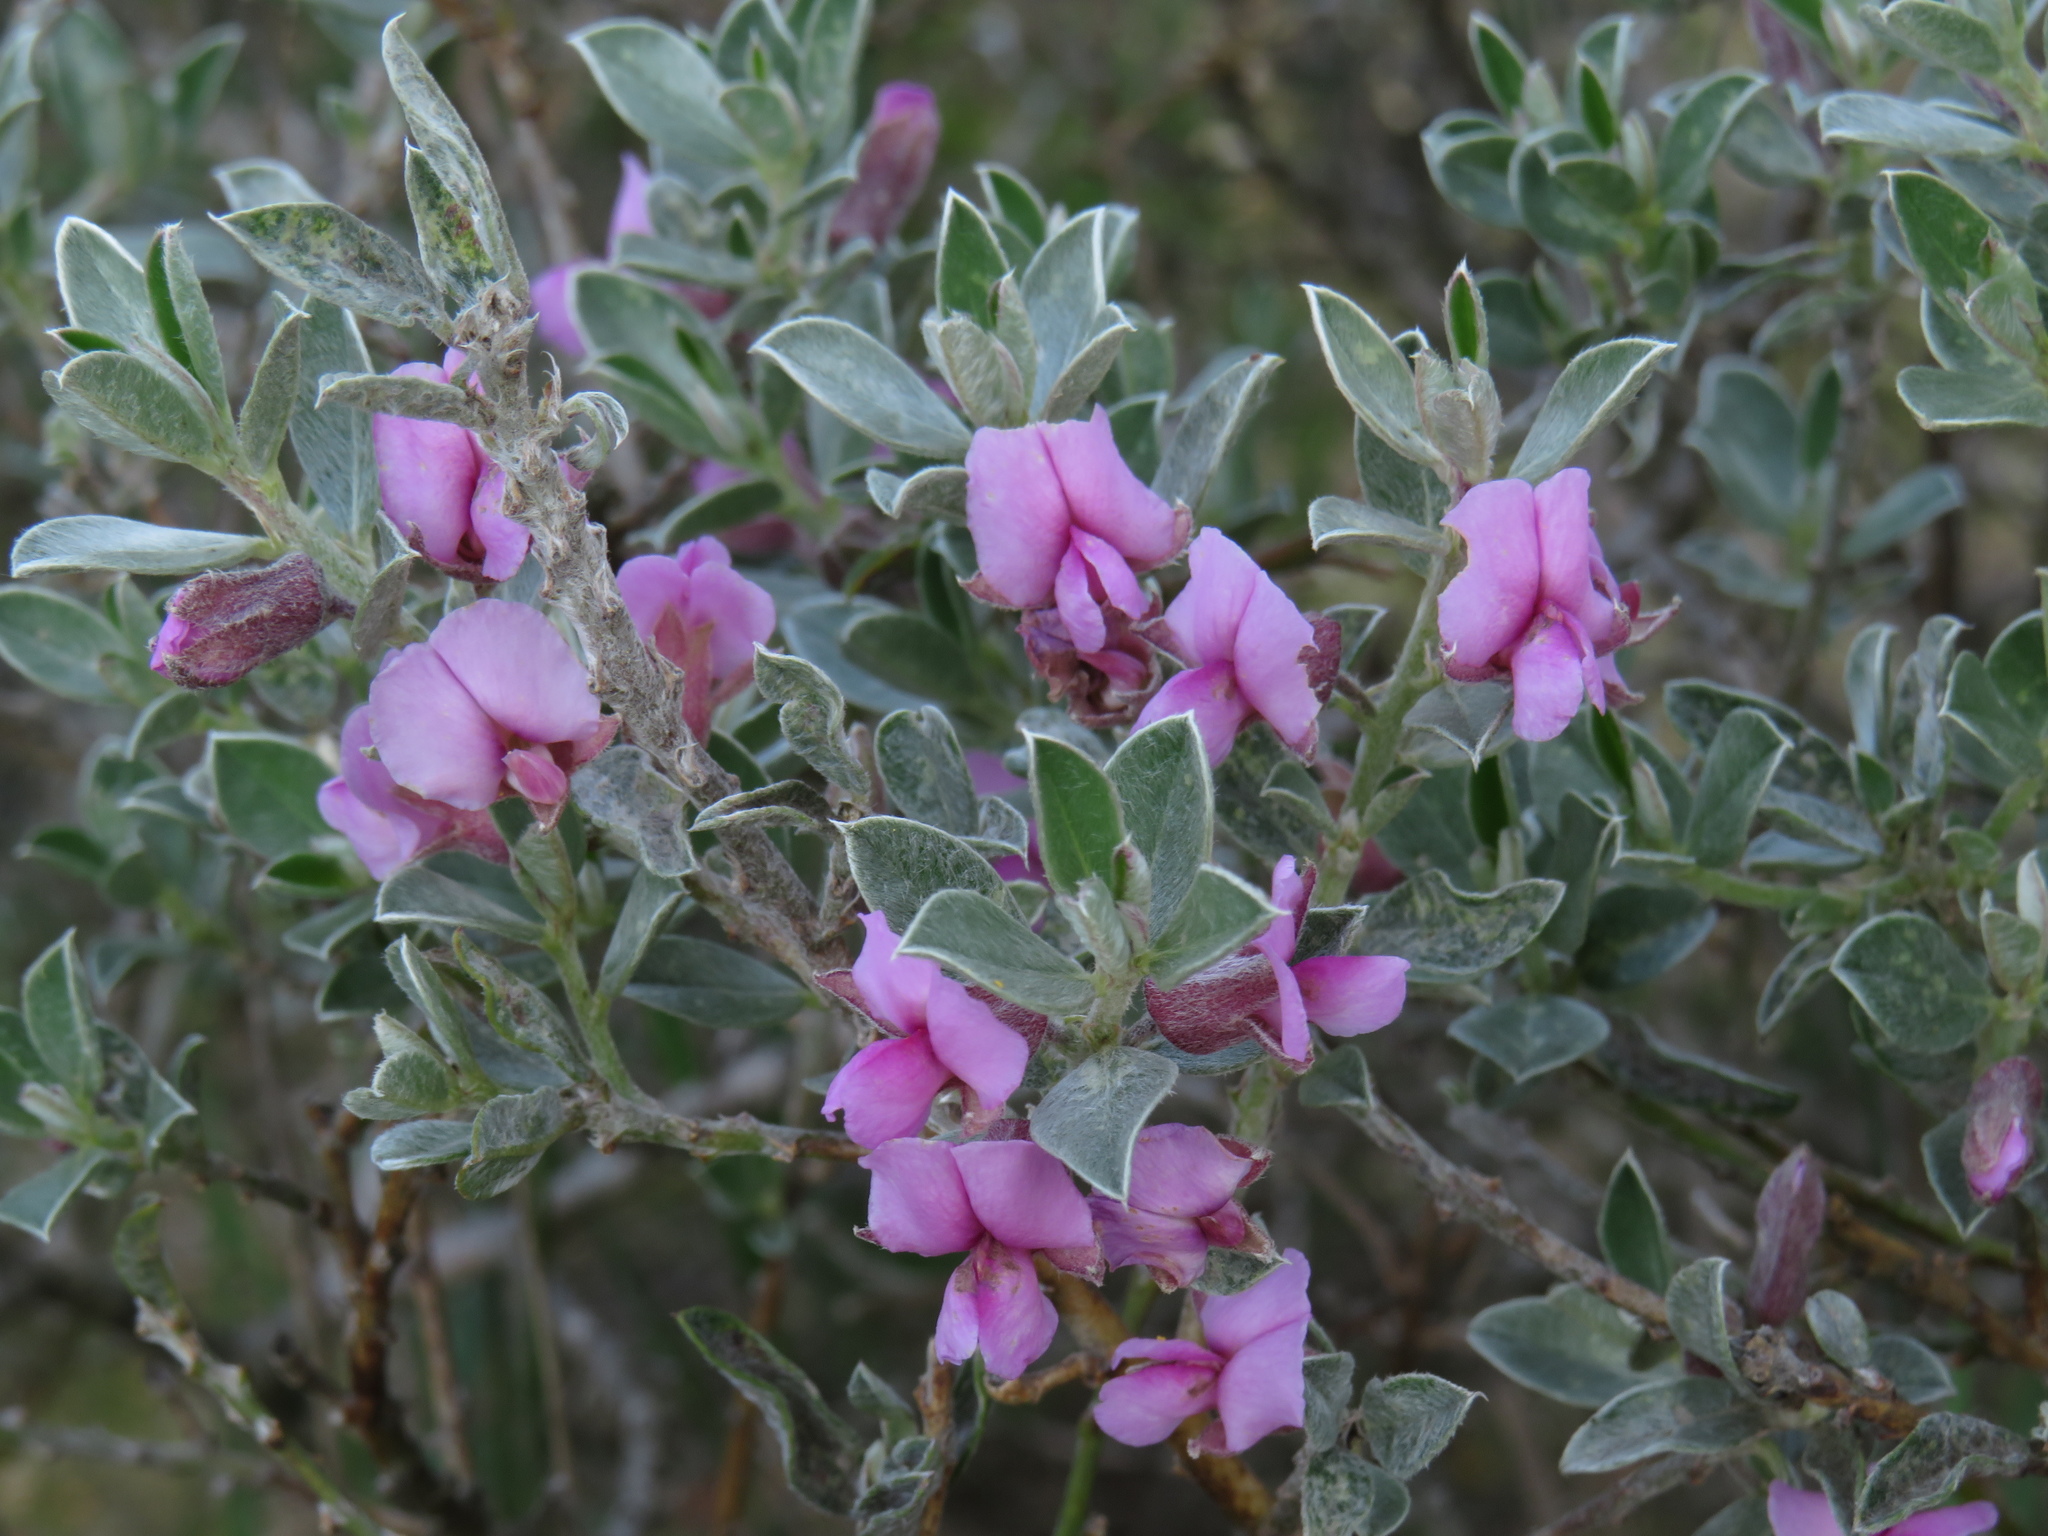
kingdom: Plantae
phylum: Tracheophyta
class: Magnoliopsida
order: Fabales
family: Fabaceae
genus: Podalyria
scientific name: Podalyria sericea
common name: Silver podalyria
